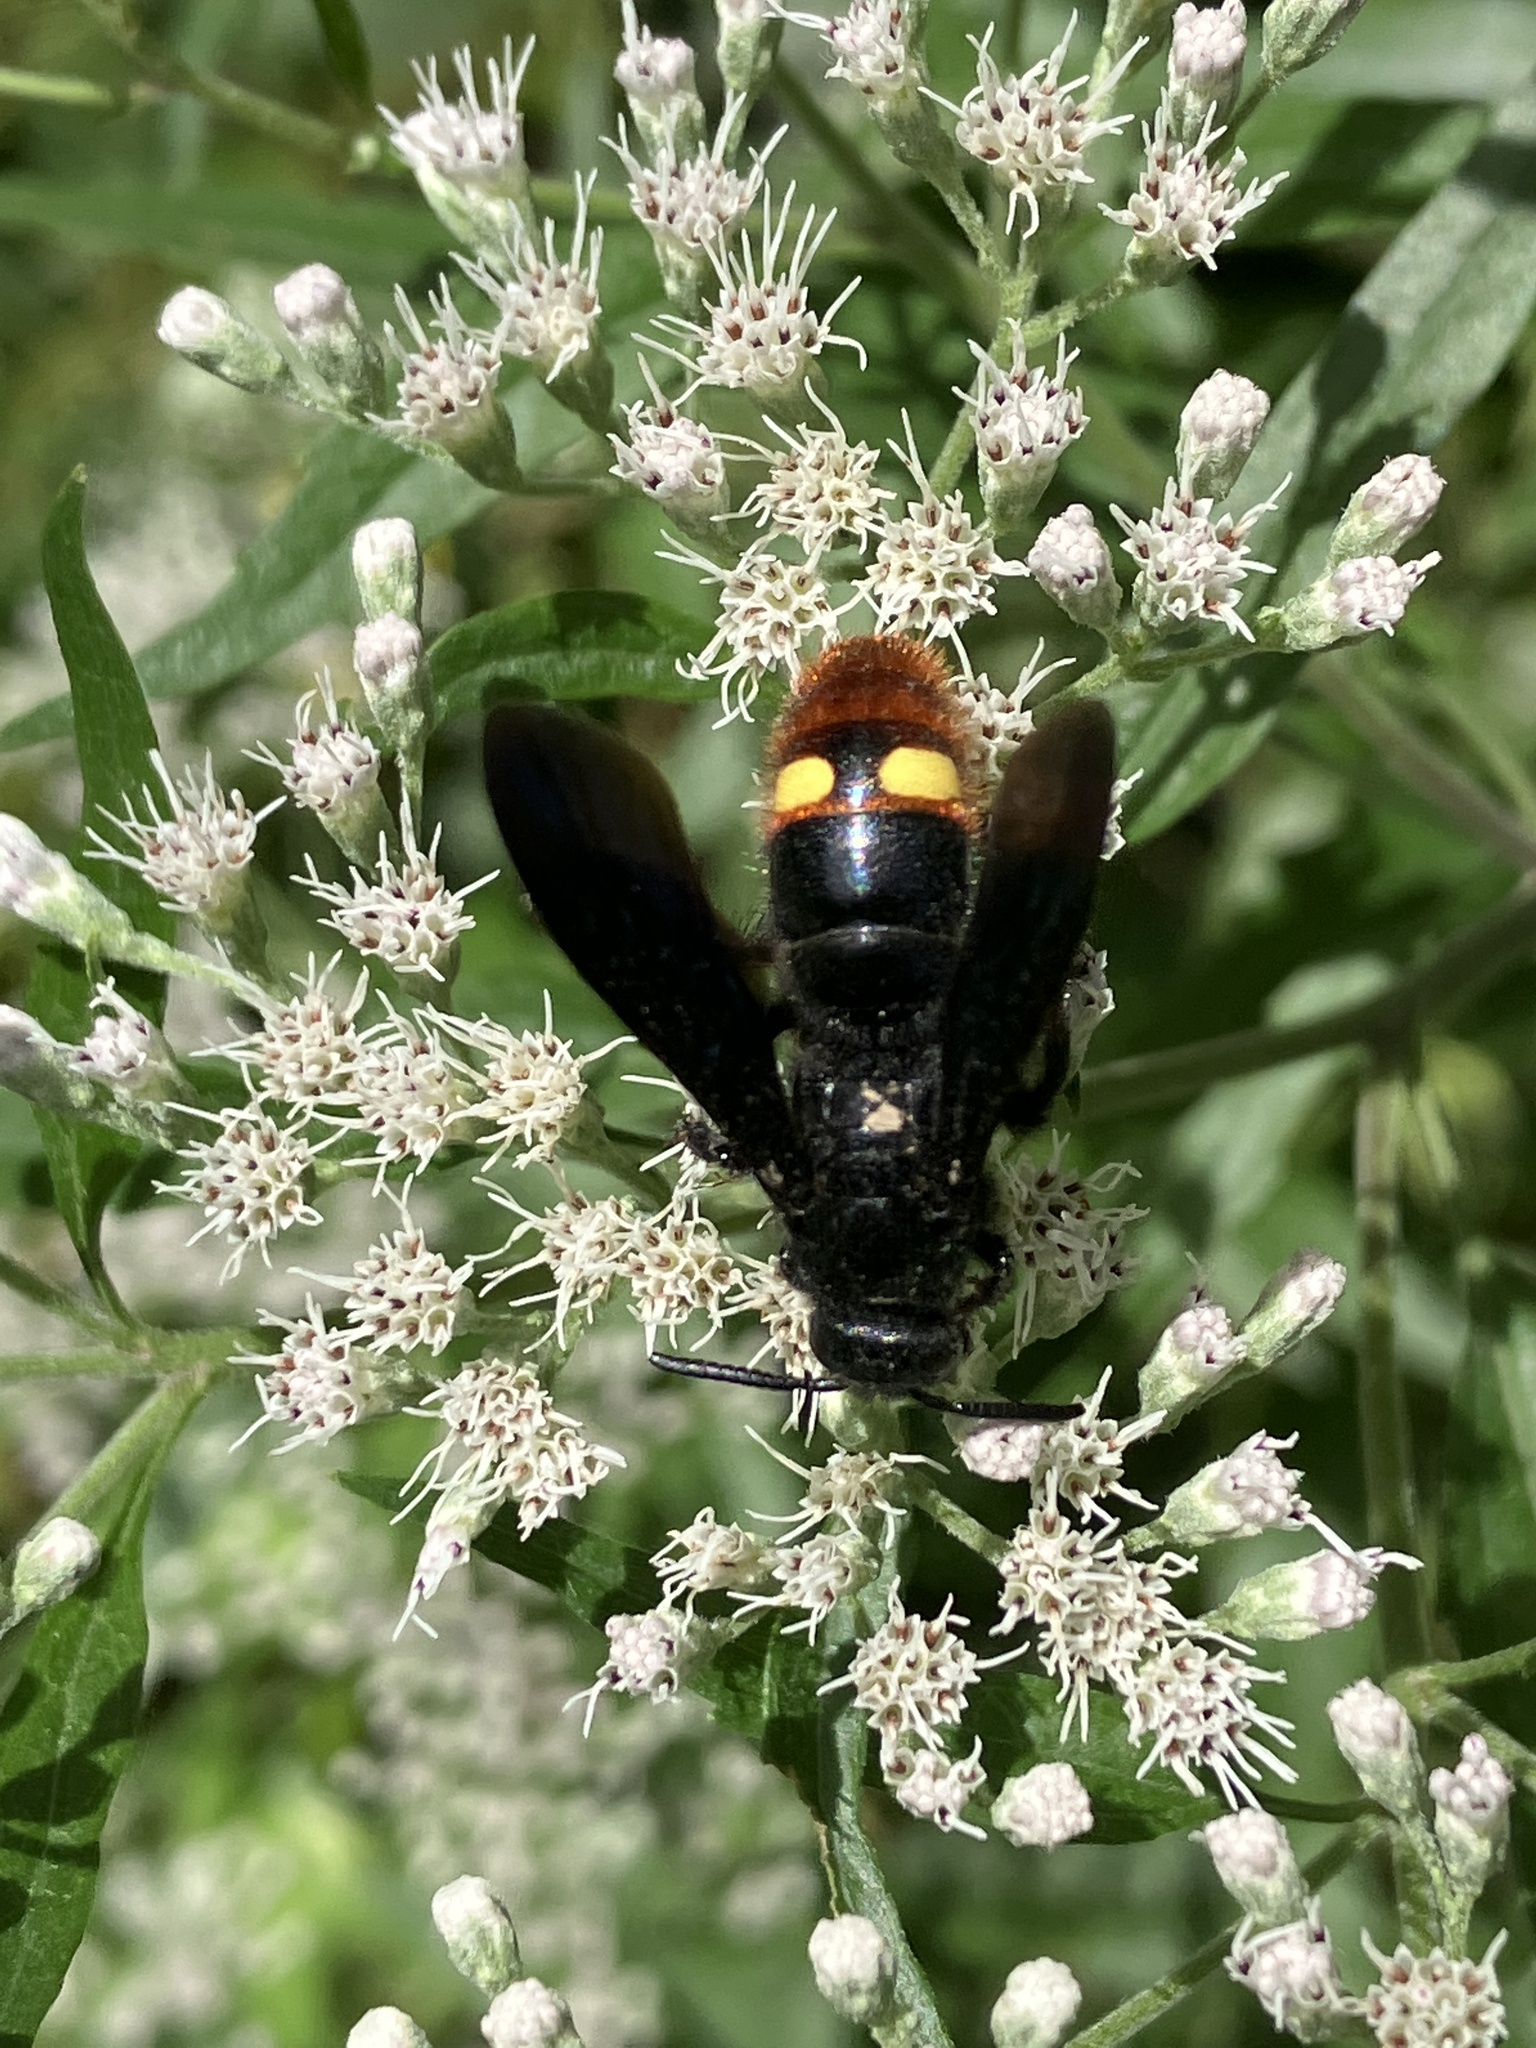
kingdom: Animalia
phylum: Arthropoda
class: Insecta
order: Hymenoptera
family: Scoliidae
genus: Scolia
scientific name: Scolia dubia
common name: Blue-winged scoliid wasp
